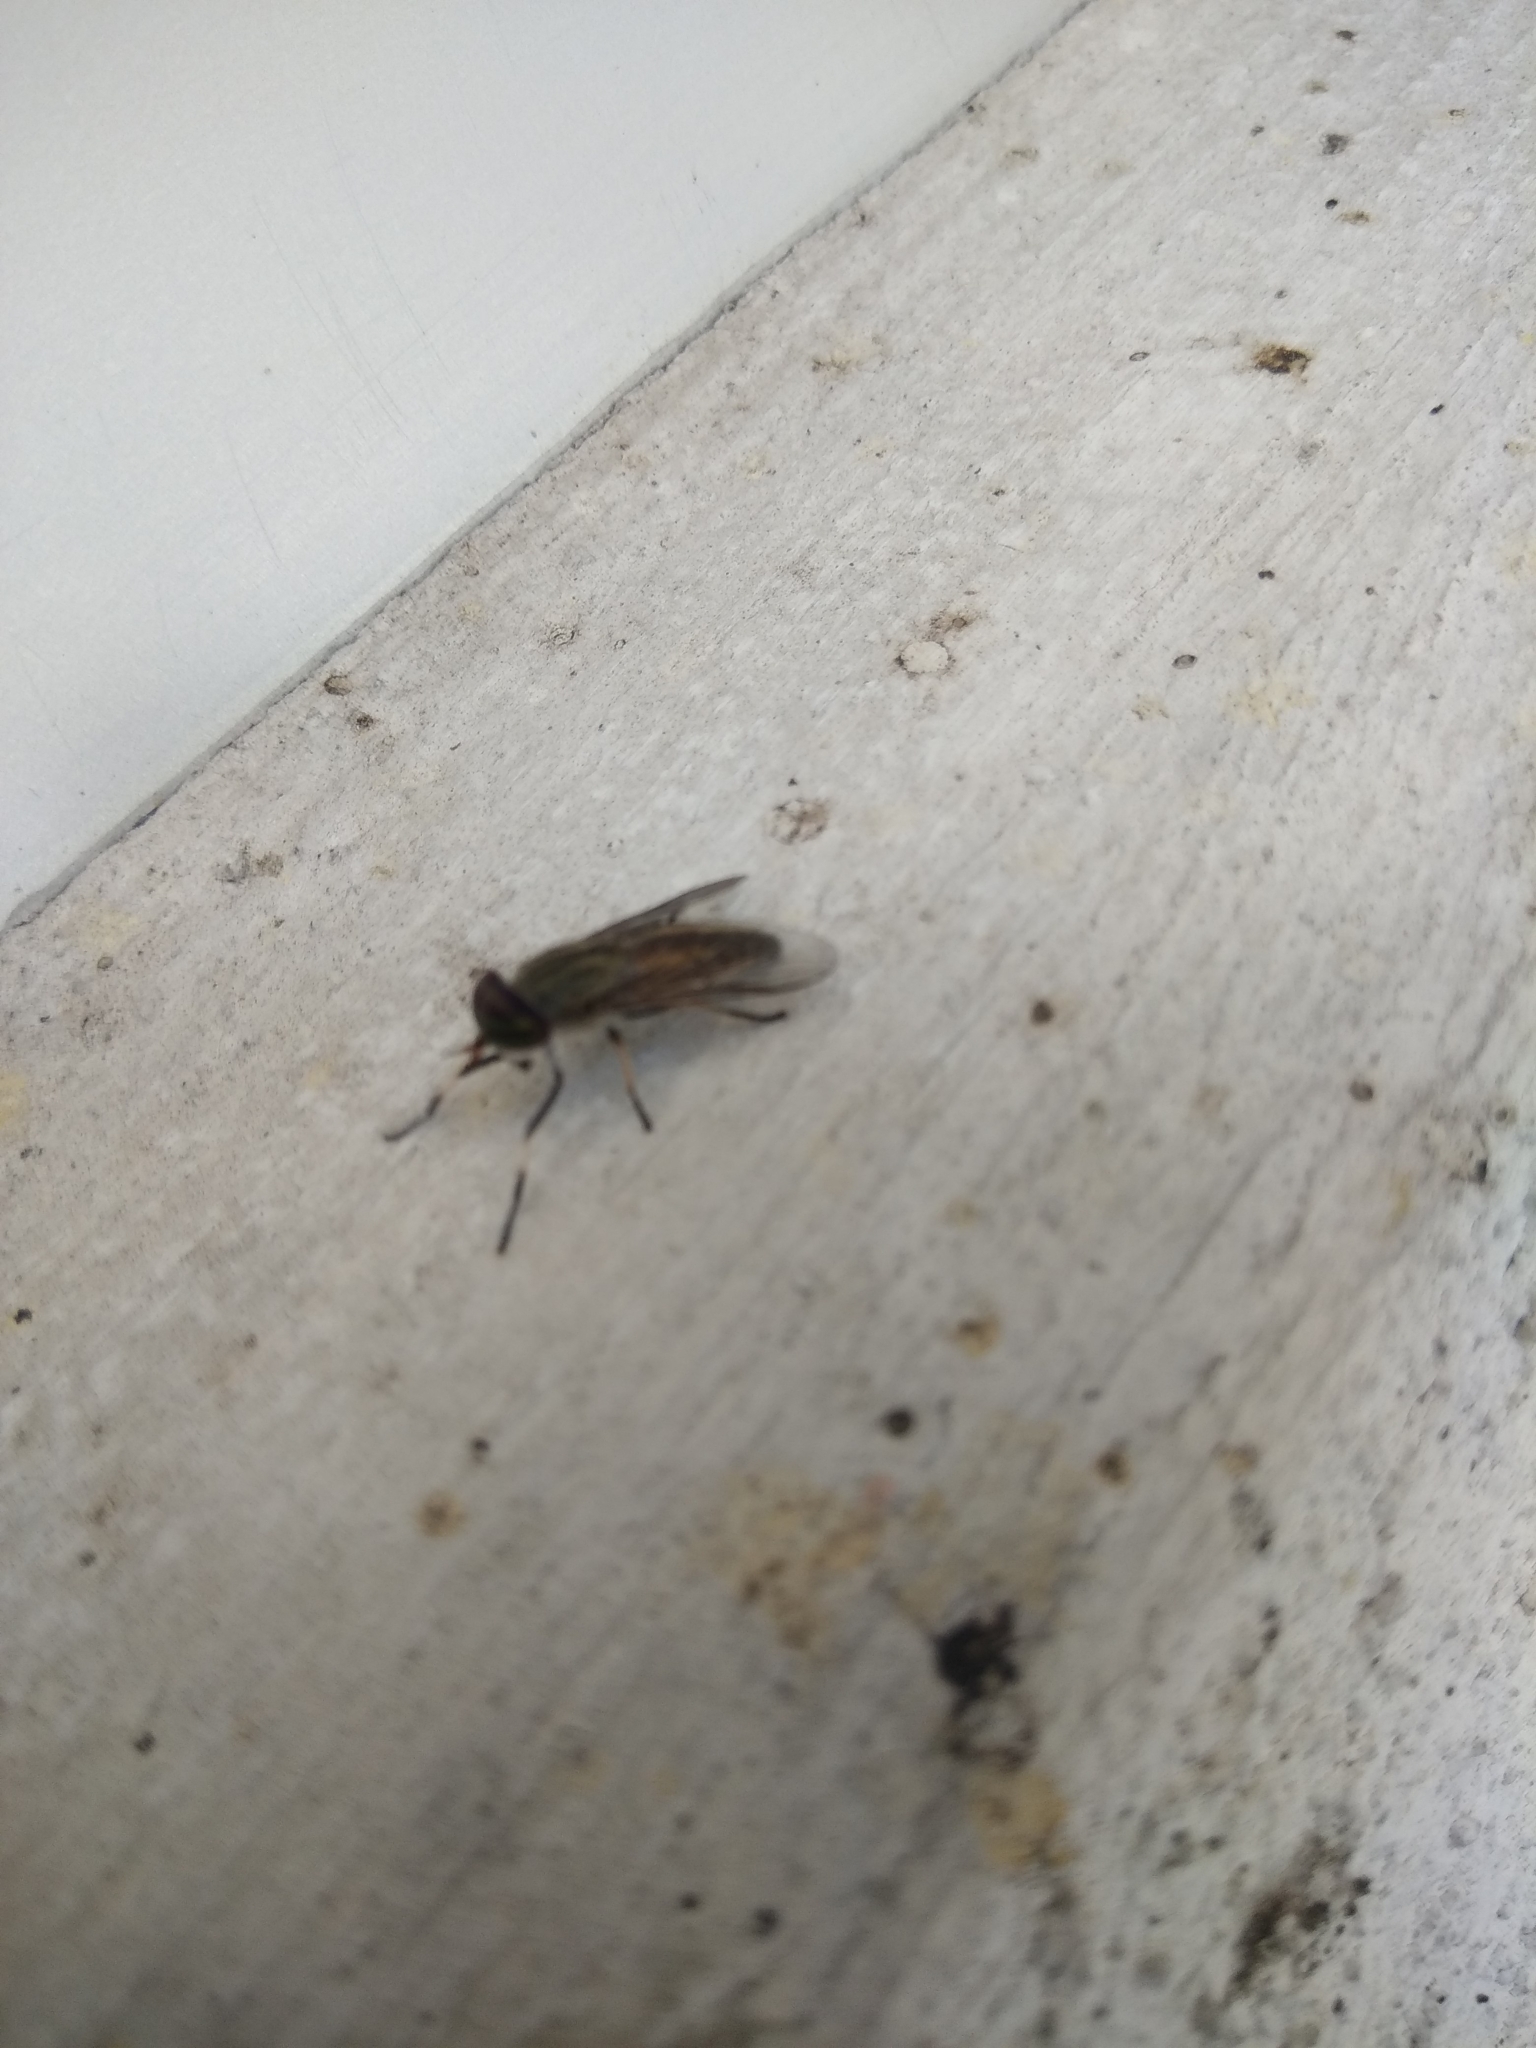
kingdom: Animalia
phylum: Arthropoda
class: Insecta
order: Diptera
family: Tabanidae
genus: Tabanus
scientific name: Tabanus lineola
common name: Striped horse fly
